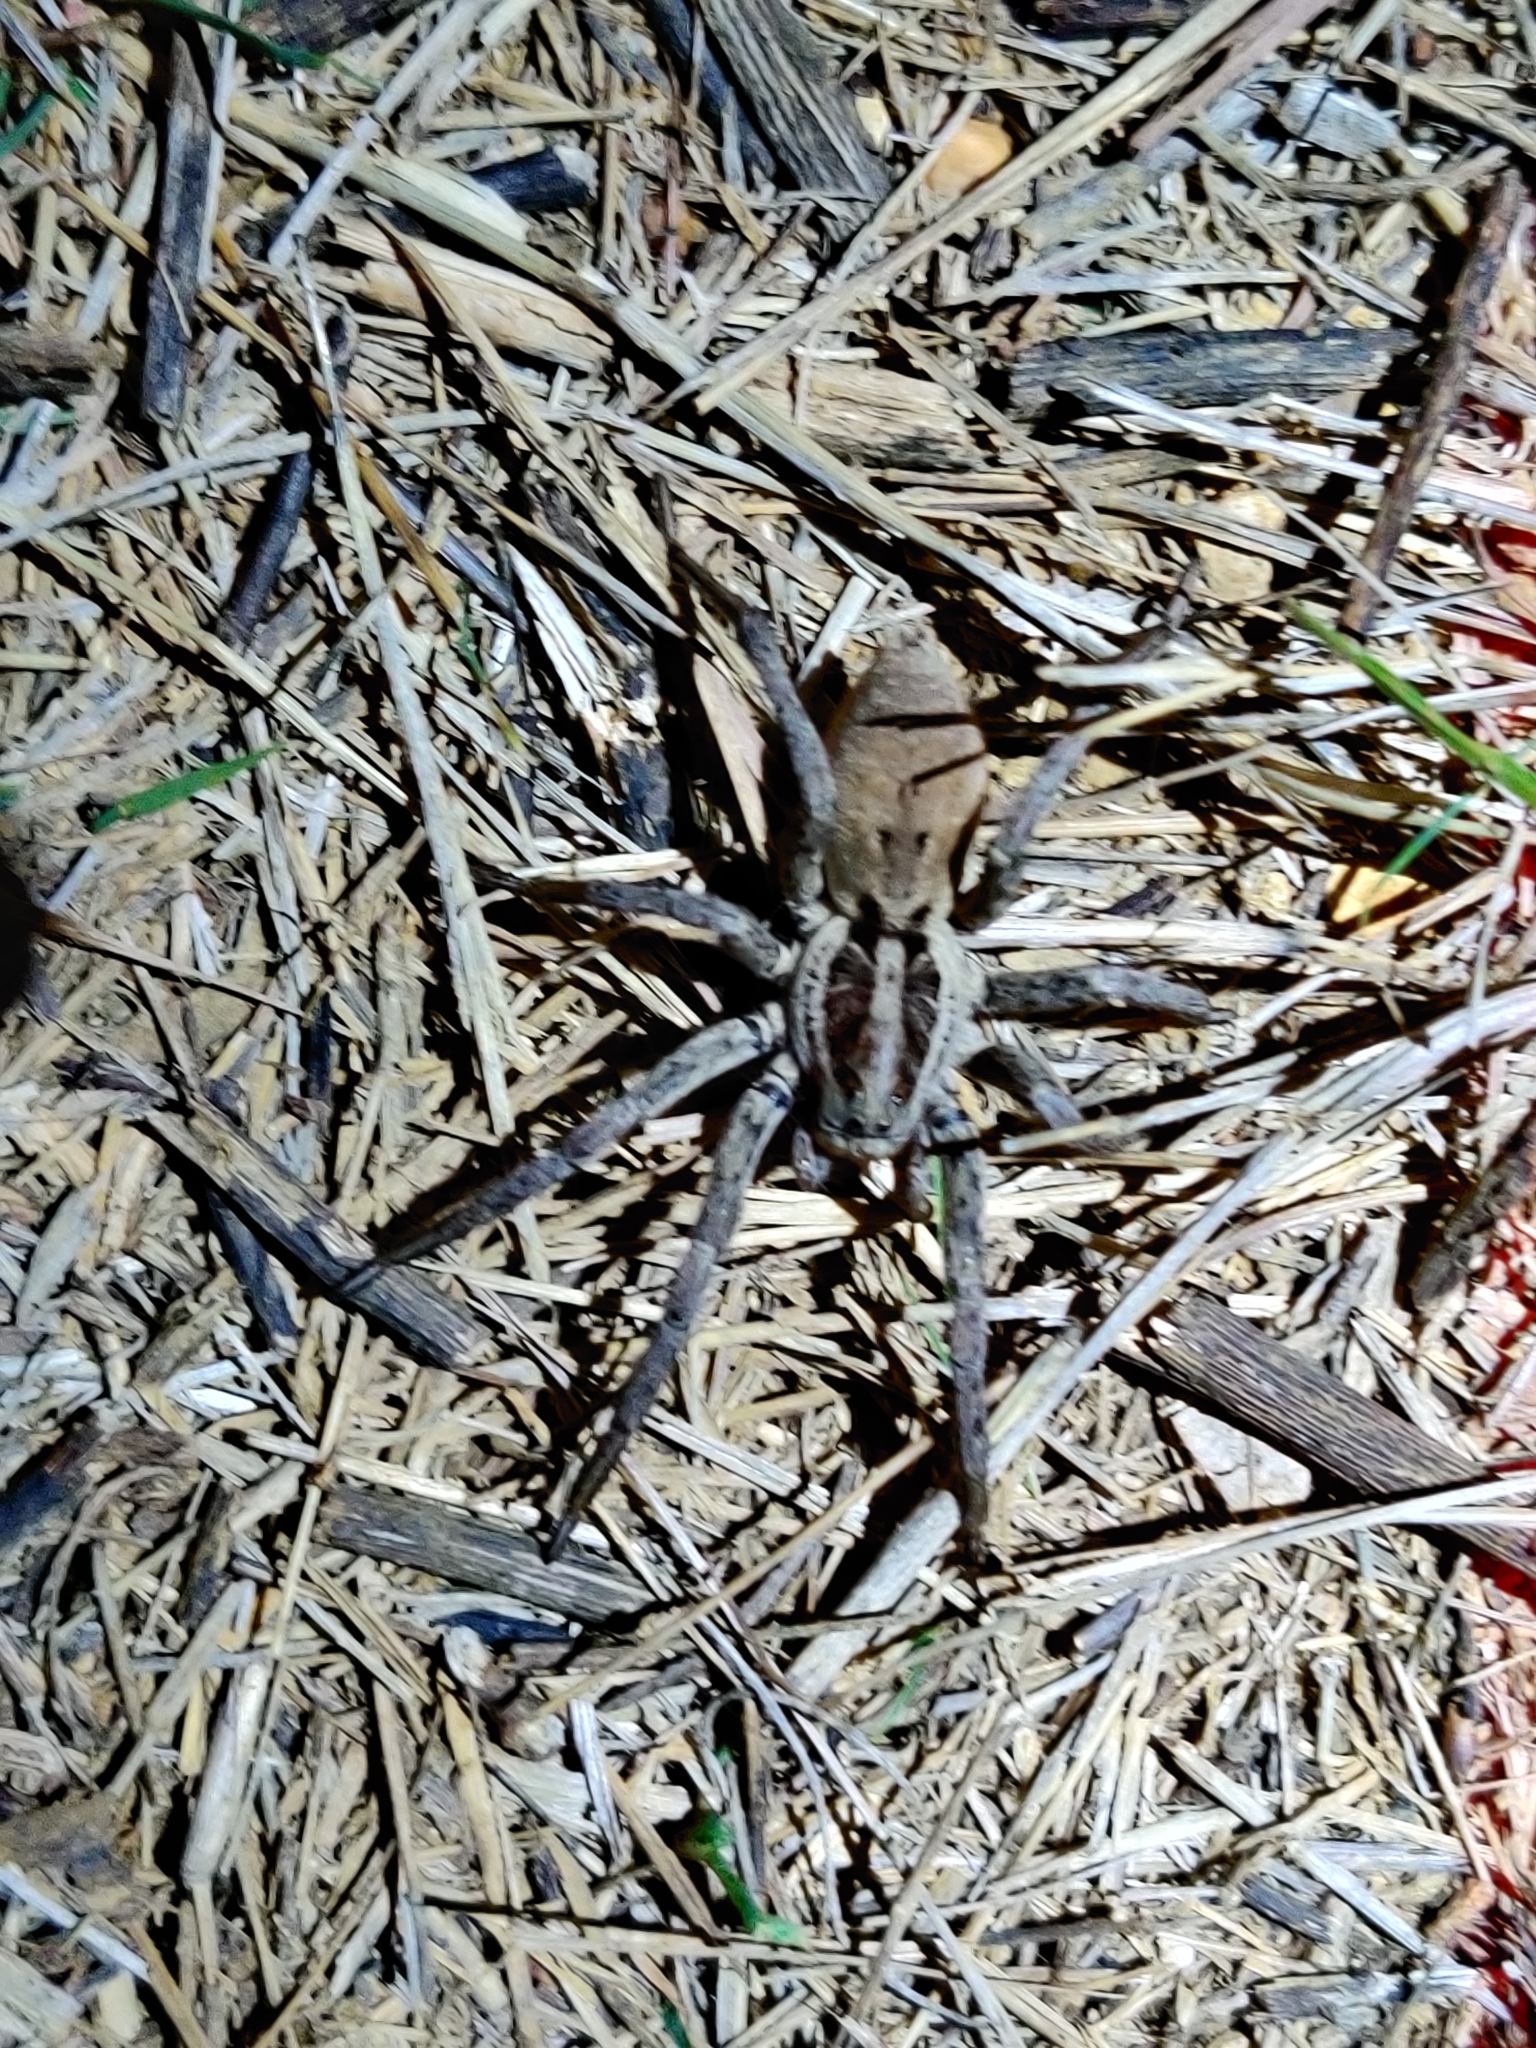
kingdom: Animalia
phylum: Arthropoda
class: Arachnida
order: Araneae
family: Lycosidae
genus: Hogna
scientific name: Hogna radiata
